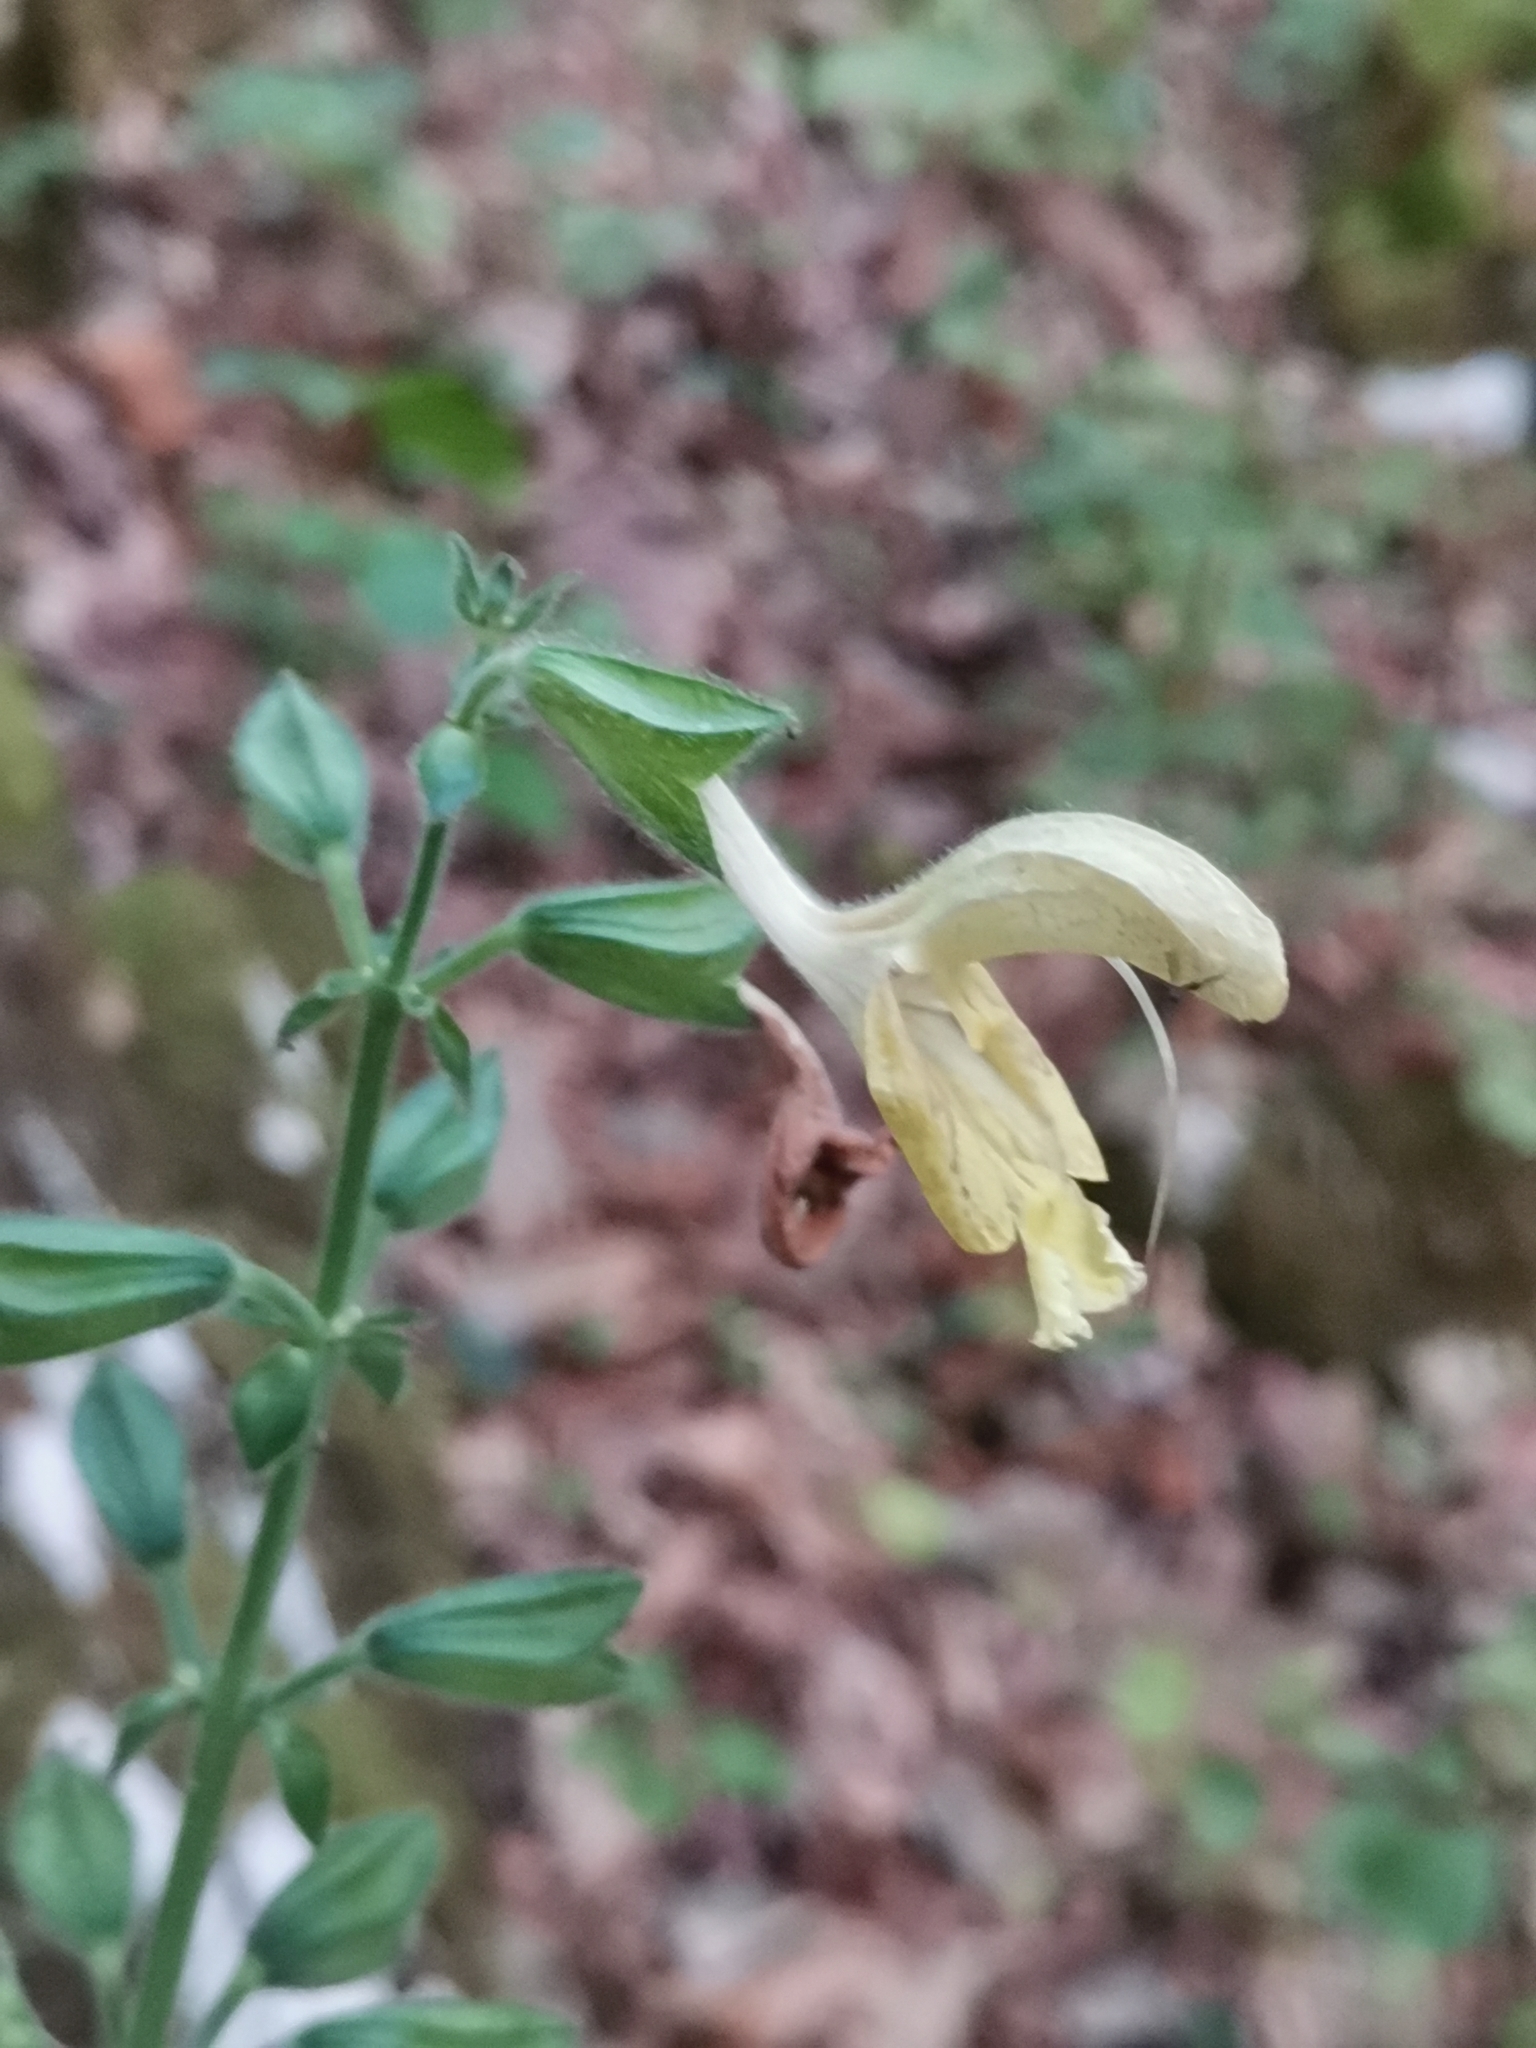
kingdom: Plantae
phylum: Tracheophyta
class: Magnoliopsida
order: Lamiales
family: Lamiaceae
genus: Salvia
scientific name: Salvia glutinosa
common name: Sticky clary
